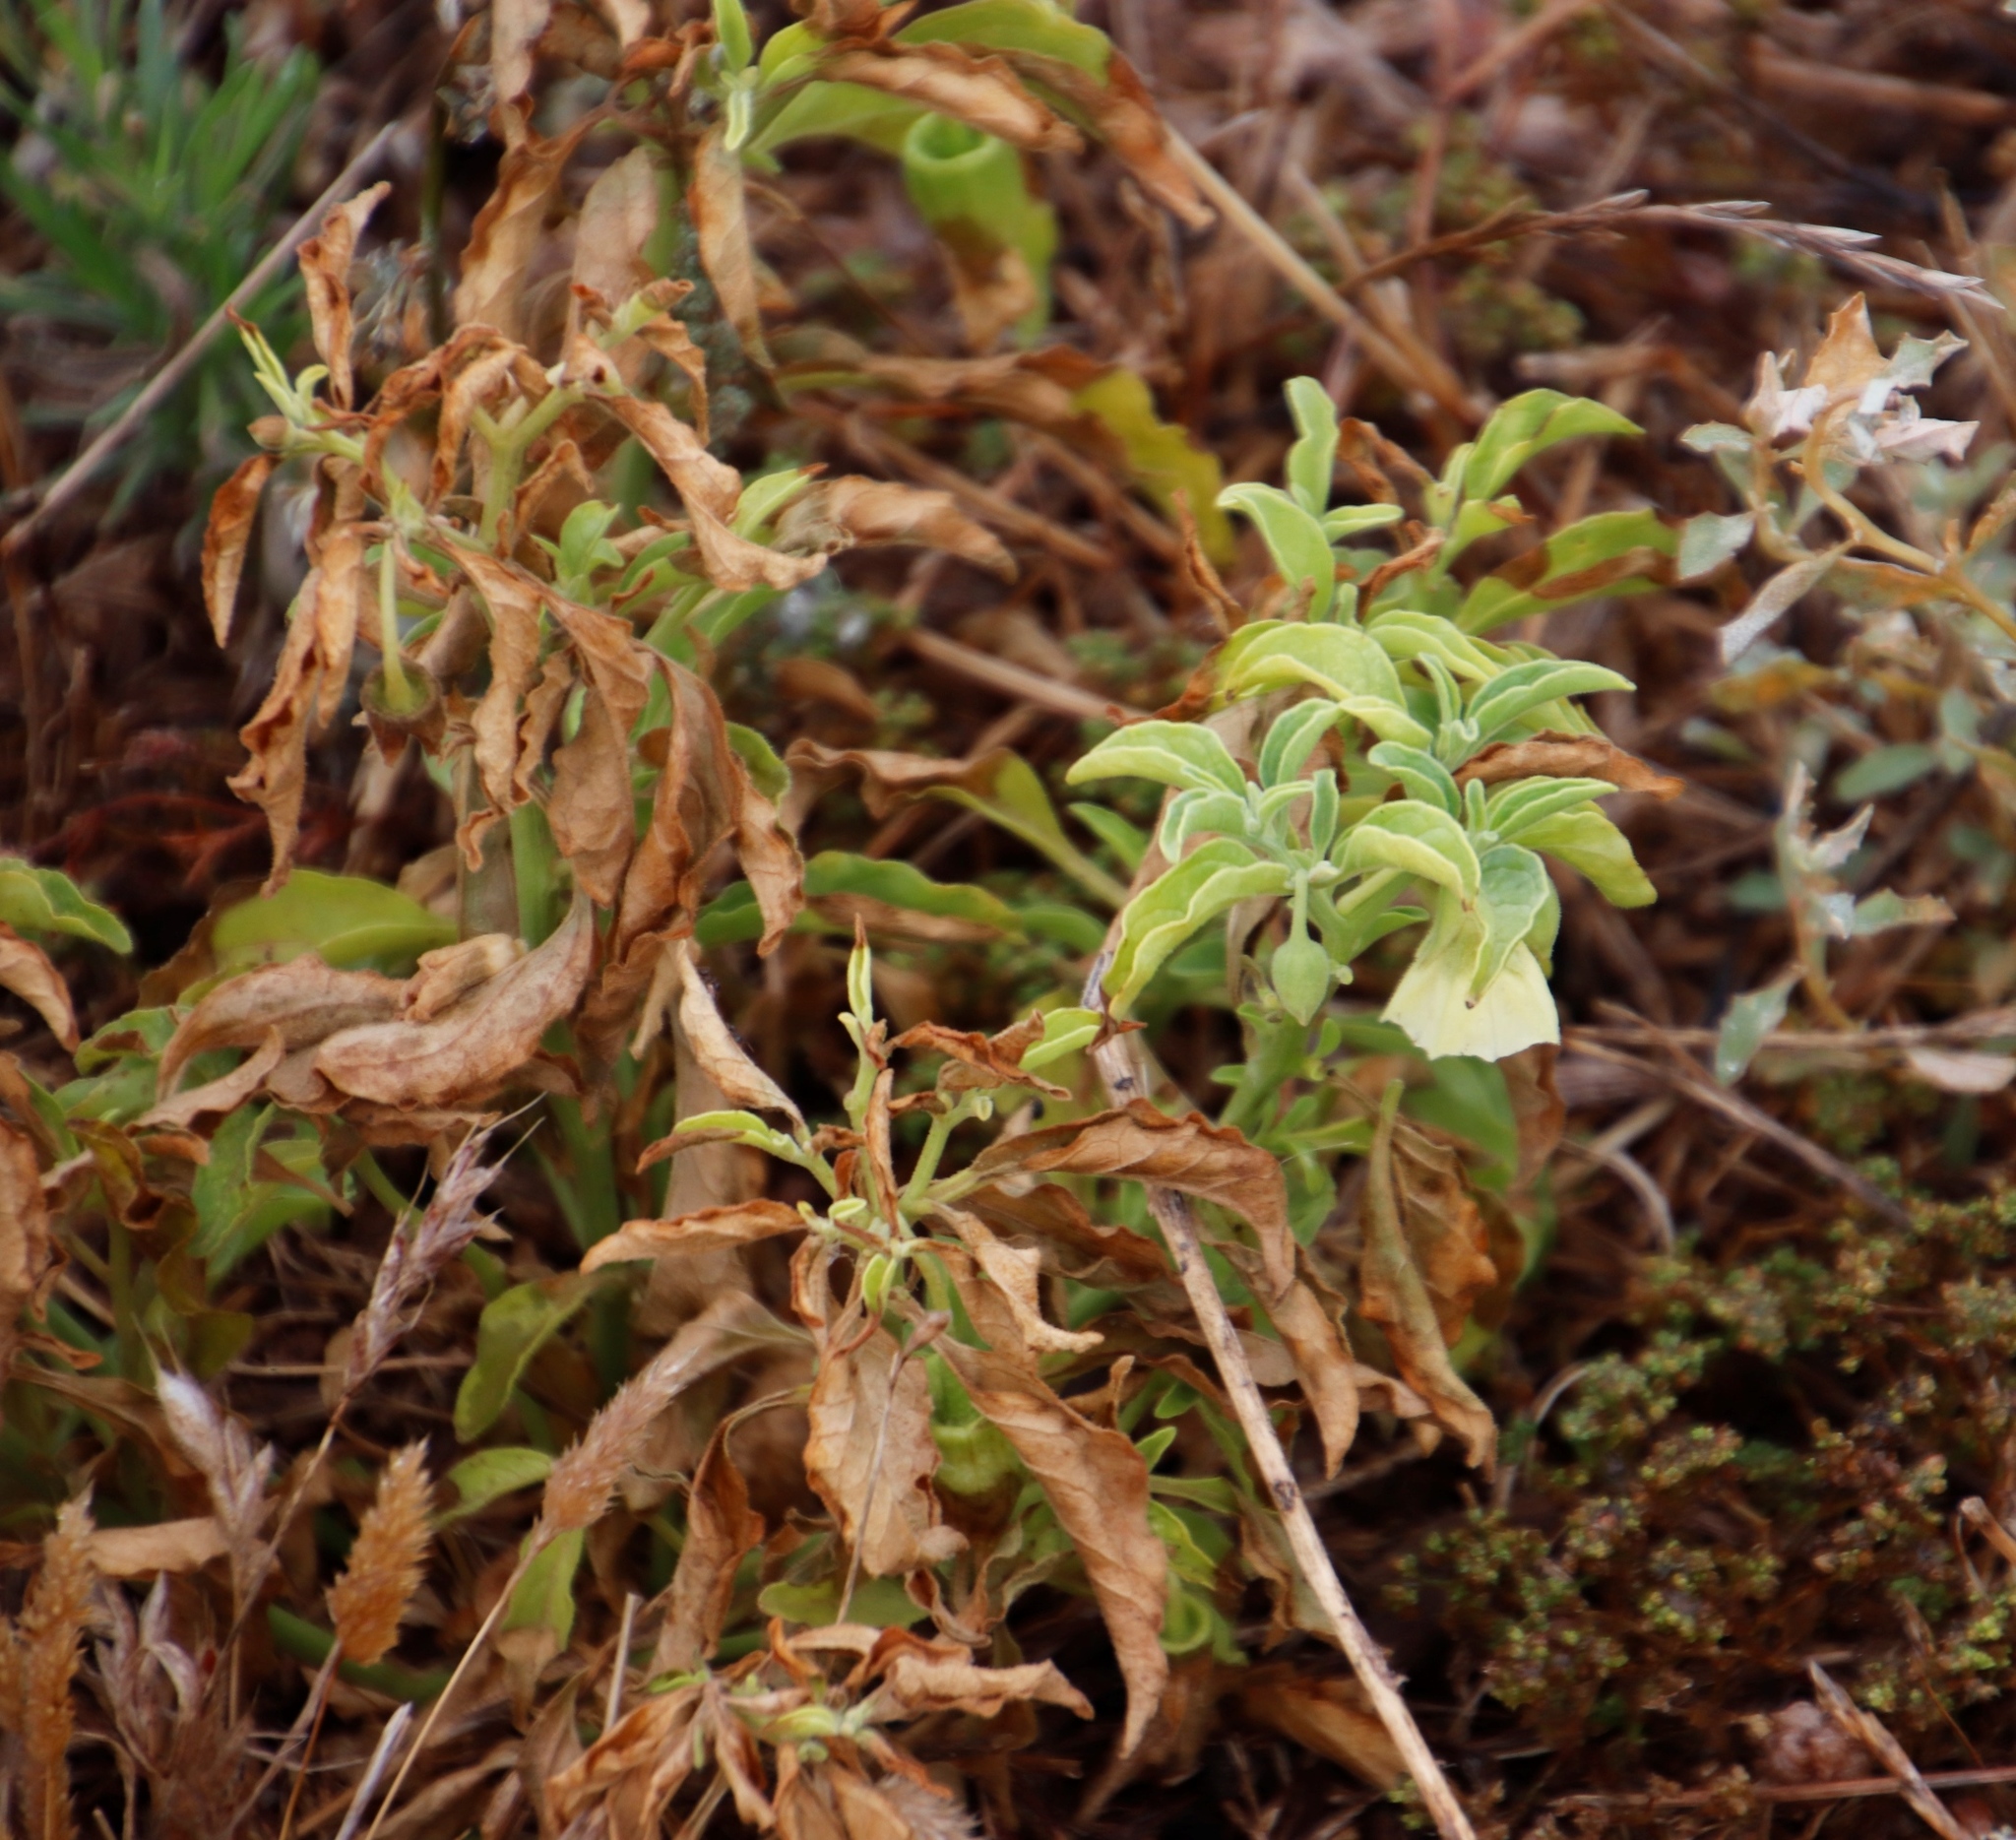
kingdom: Plantae
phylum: Tracheophyta
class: Magnoliopsida
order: Solanales
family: Solanaceae
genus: Physalis
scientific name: Physalis viscosa
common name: Stellate ground-cherry
